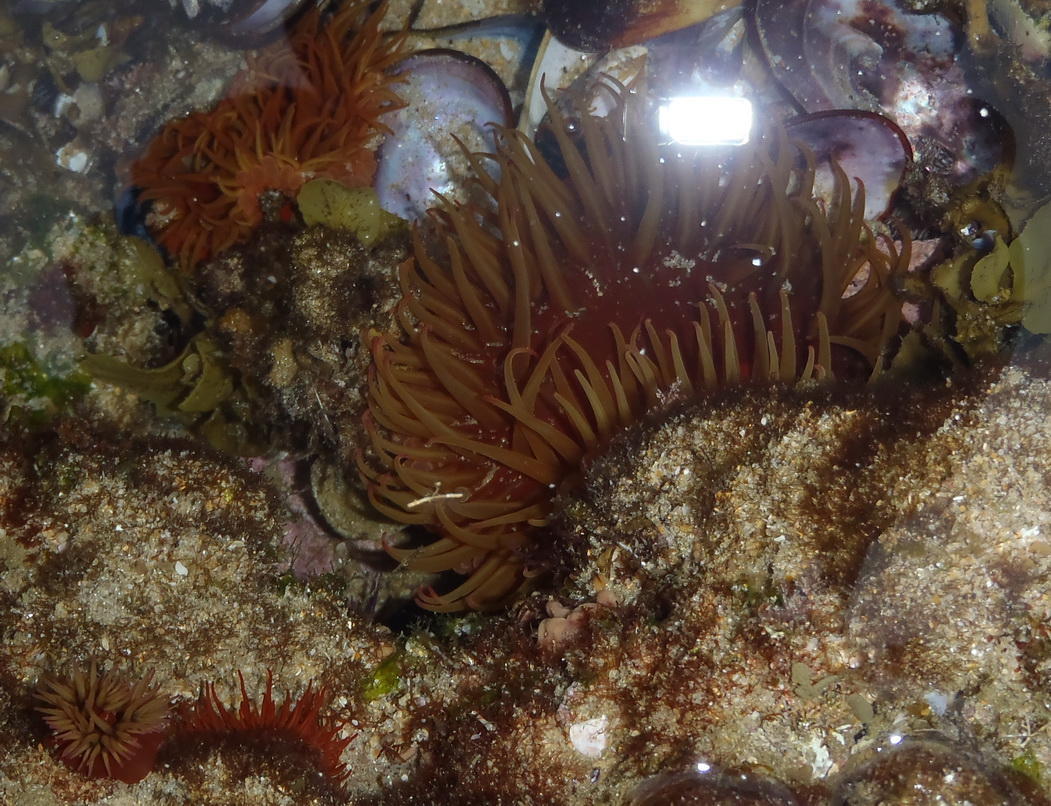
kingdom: Animalia
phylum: Cnidaria
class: Anthozoa
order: Actiniaria
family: Actiniidae
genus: Actinia
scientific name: Actinia ebhayiensis
